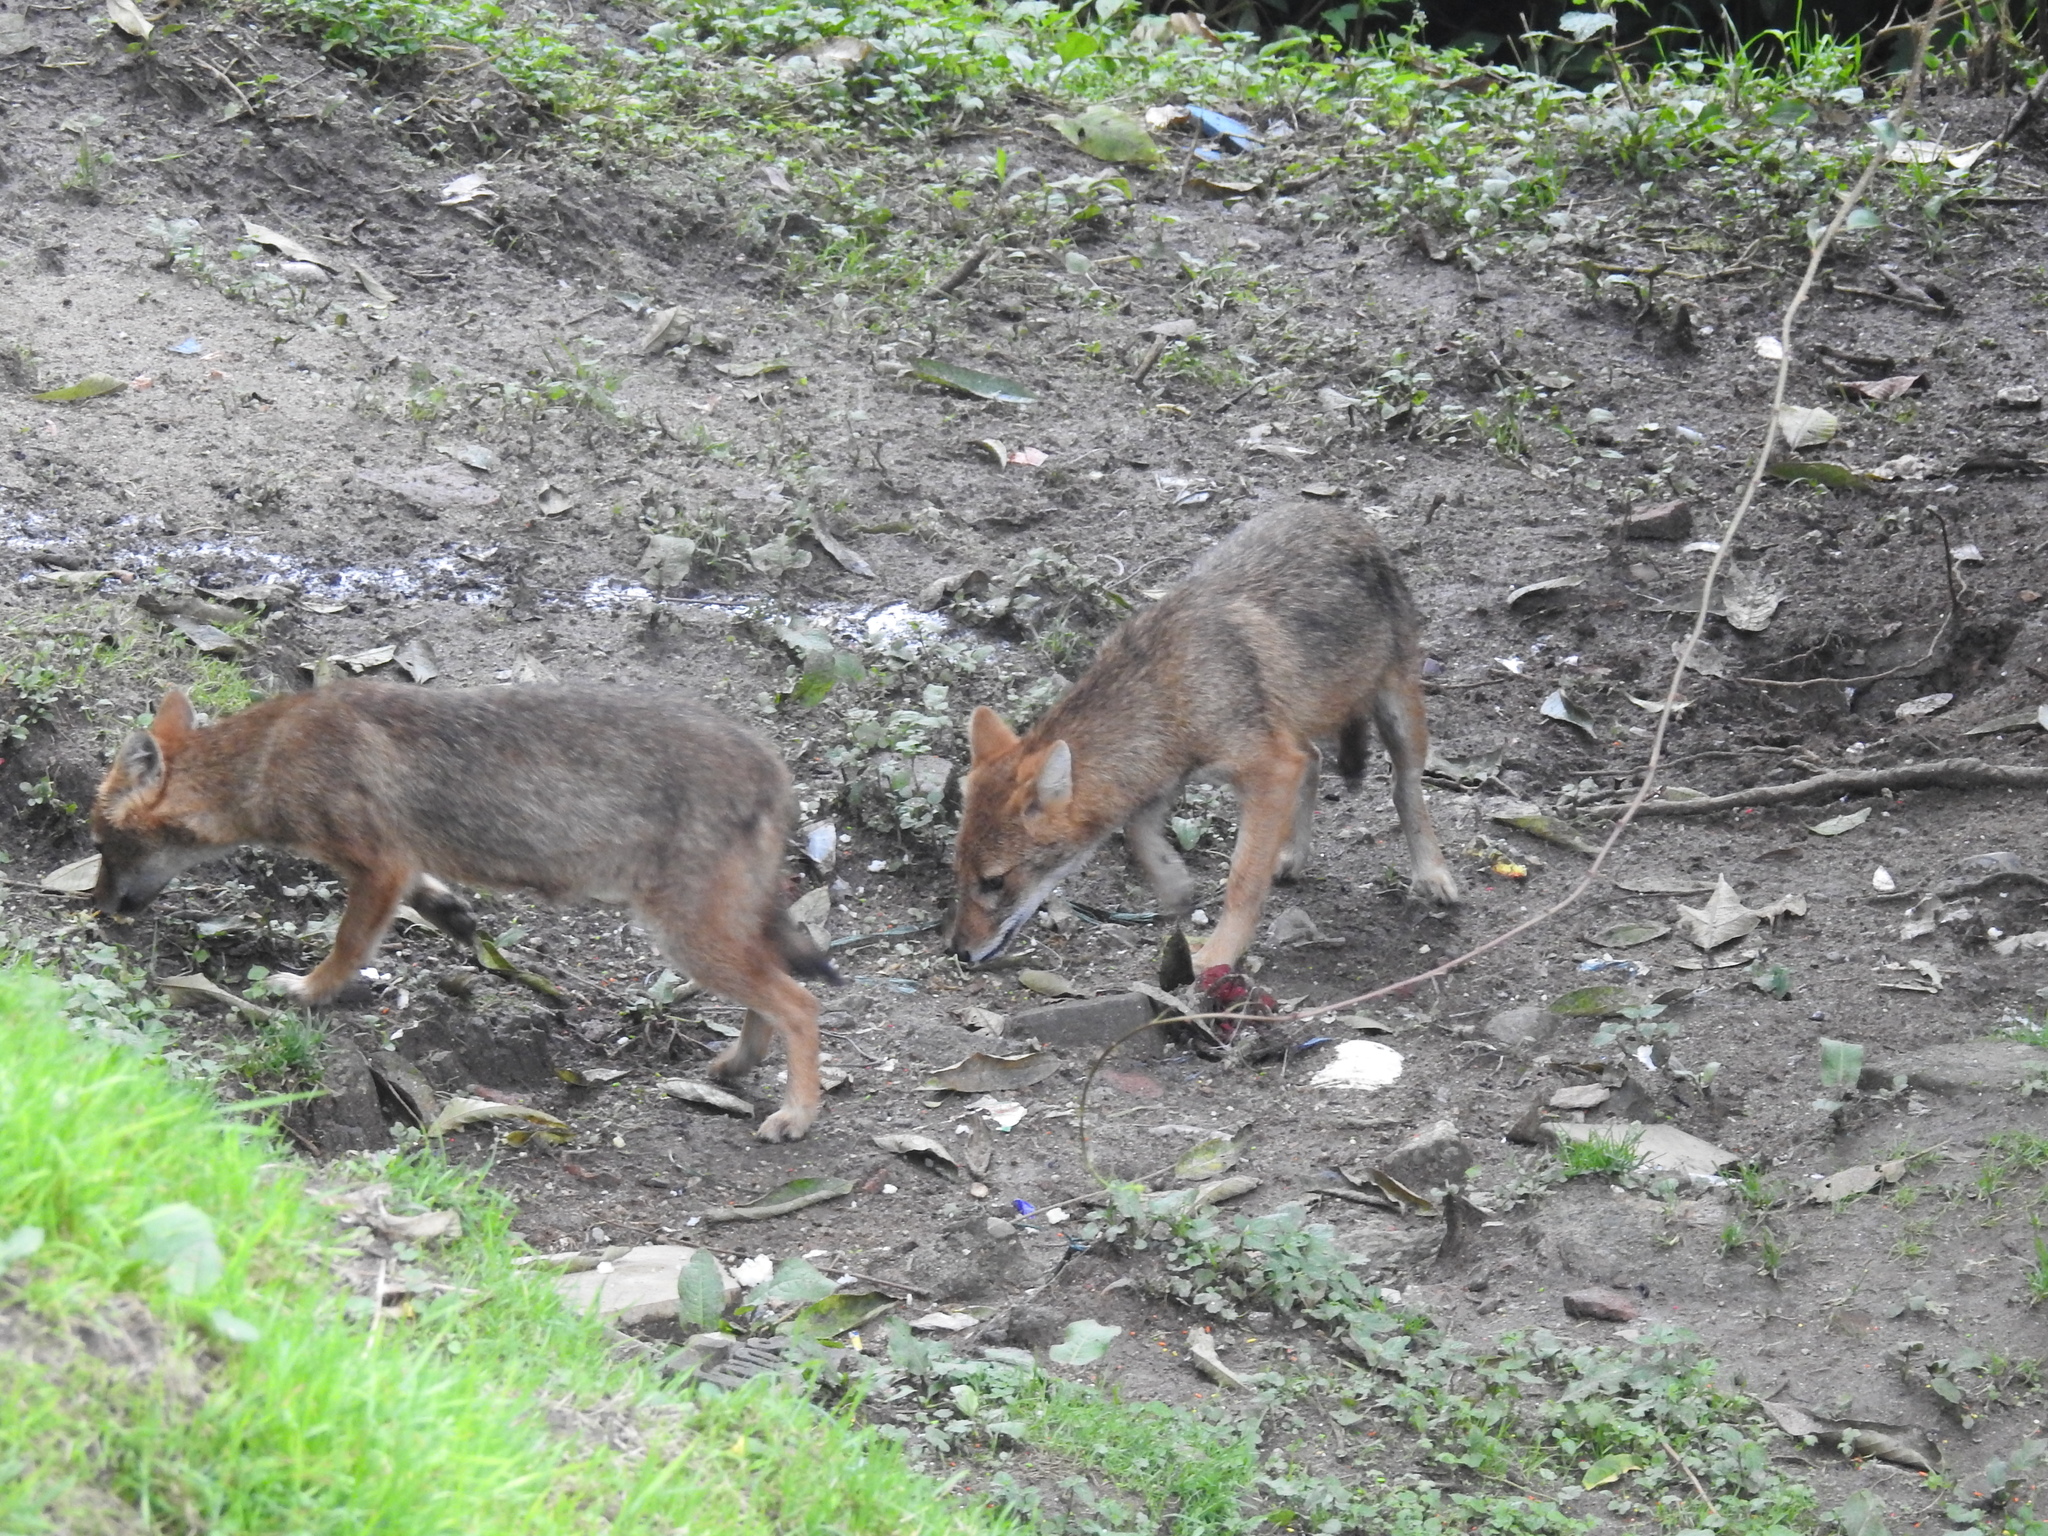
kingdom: Animalia
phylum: Chordata
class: Mammalia
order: Carnivora
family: Canidae
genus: Canis
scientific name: Canis aureus
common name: Golden jackal
